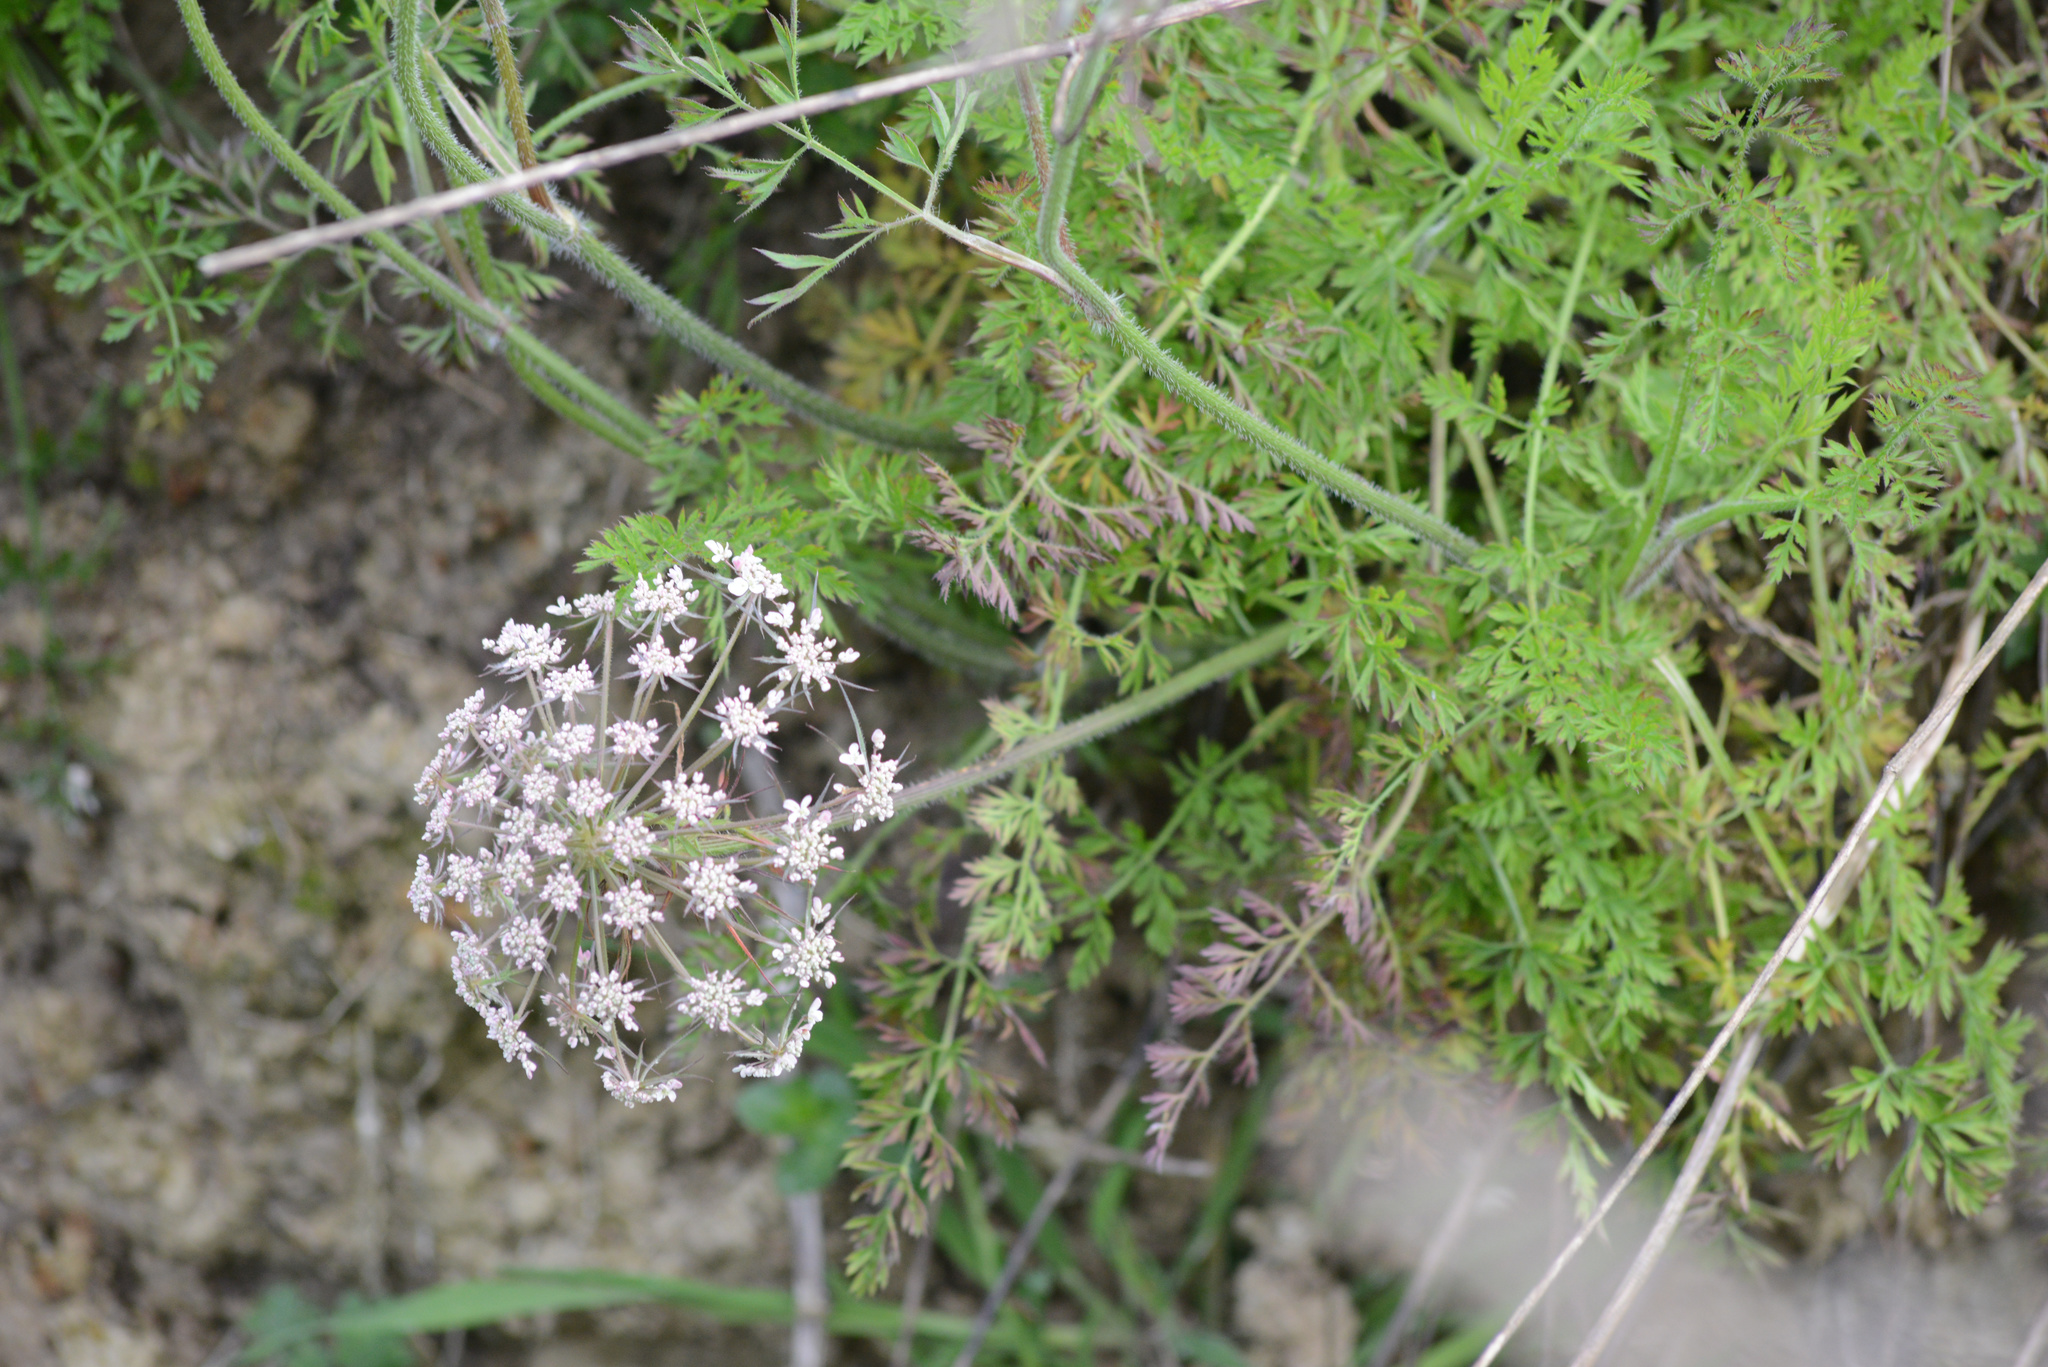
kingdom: Plantae
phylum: Tracheophyta
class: Magnoliopsida
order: Apiales
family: Apiaceae
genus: Daucus
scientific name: Daucus carota
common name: Wild carrot
